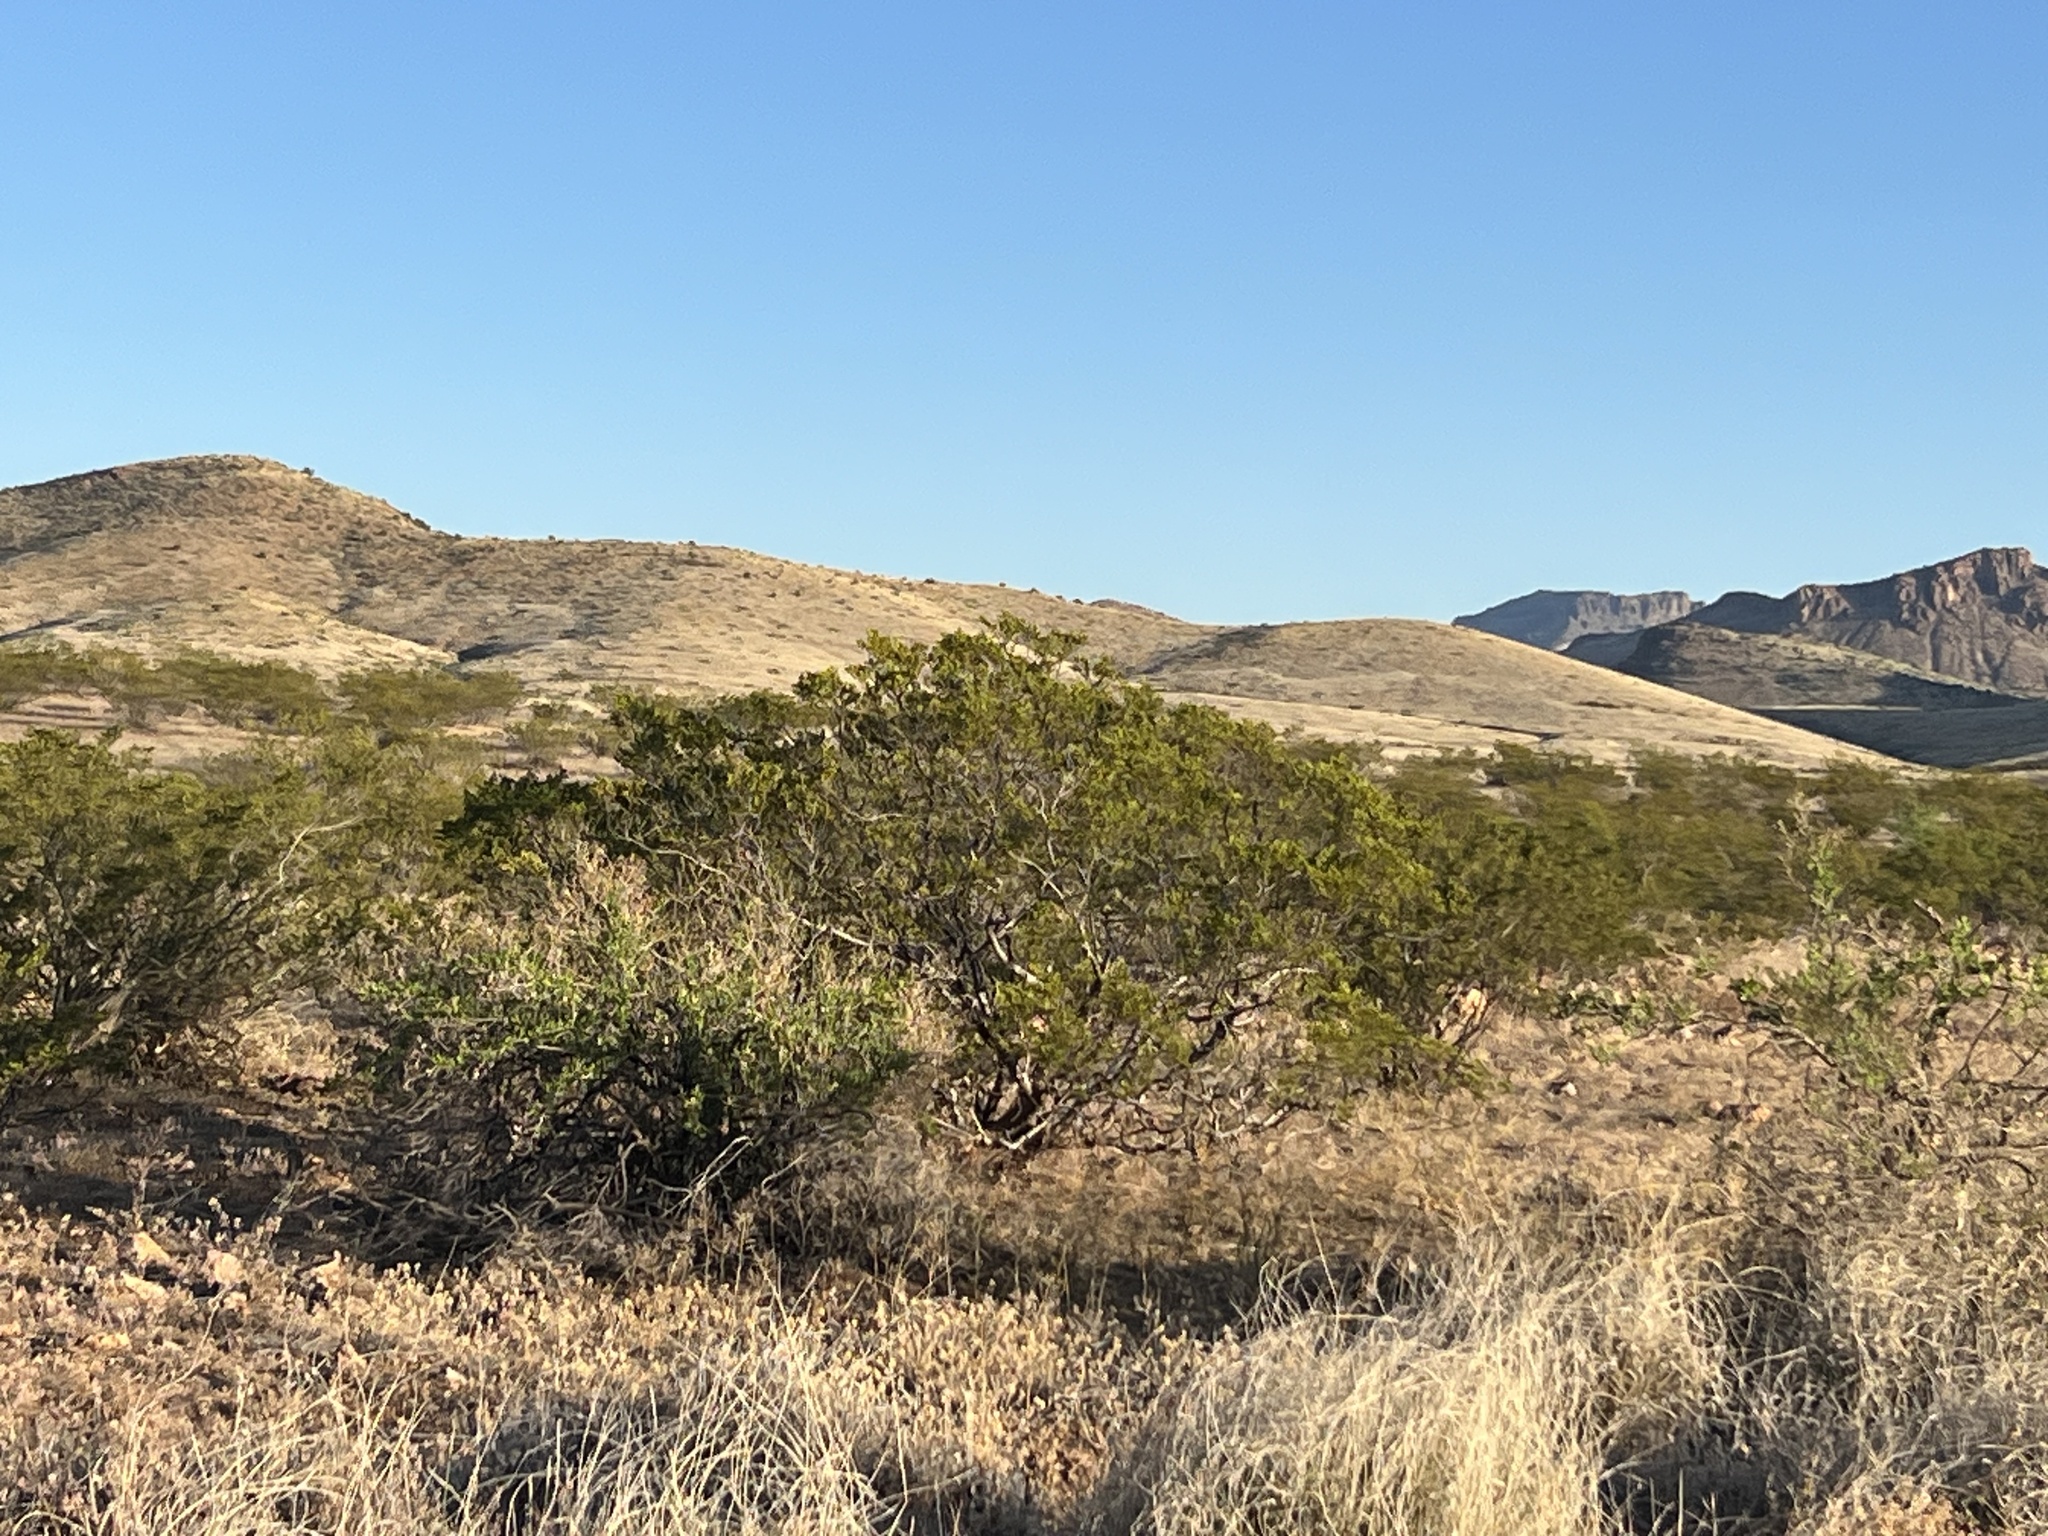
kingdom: Plantae
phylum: Tracheophyta
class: Magnoliopsida
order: Zygophyllales
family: Zygophyllaceae
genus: Larrea
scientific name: Larrea tridentata
